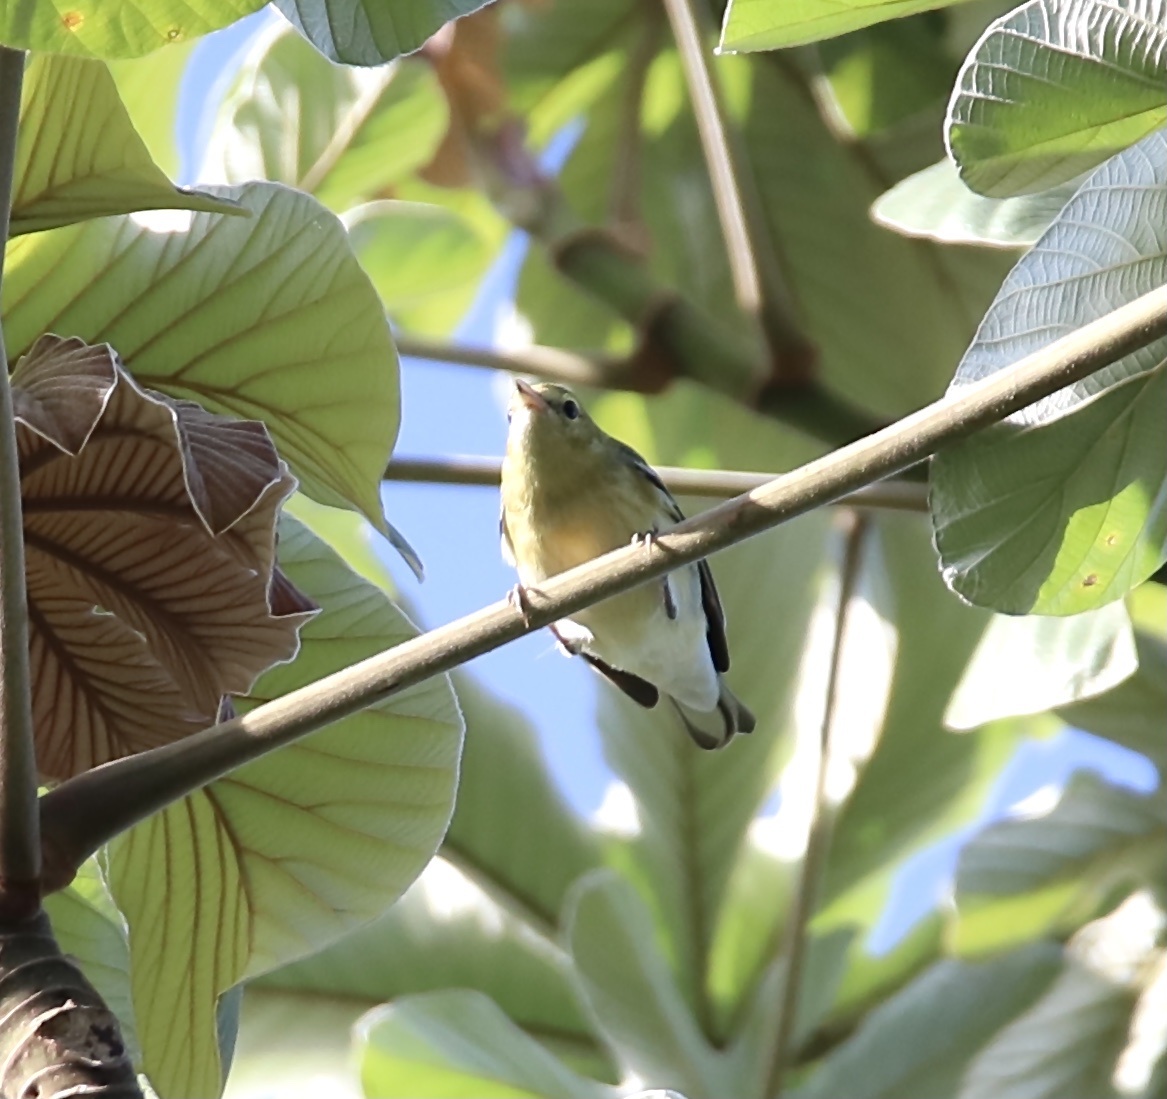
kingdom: Animalia
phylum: Chordata
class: Aves
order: Passeriformes
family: Parulidae
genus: Setophaga
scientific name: Setophaga cerulea
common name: Cerulean warbler
